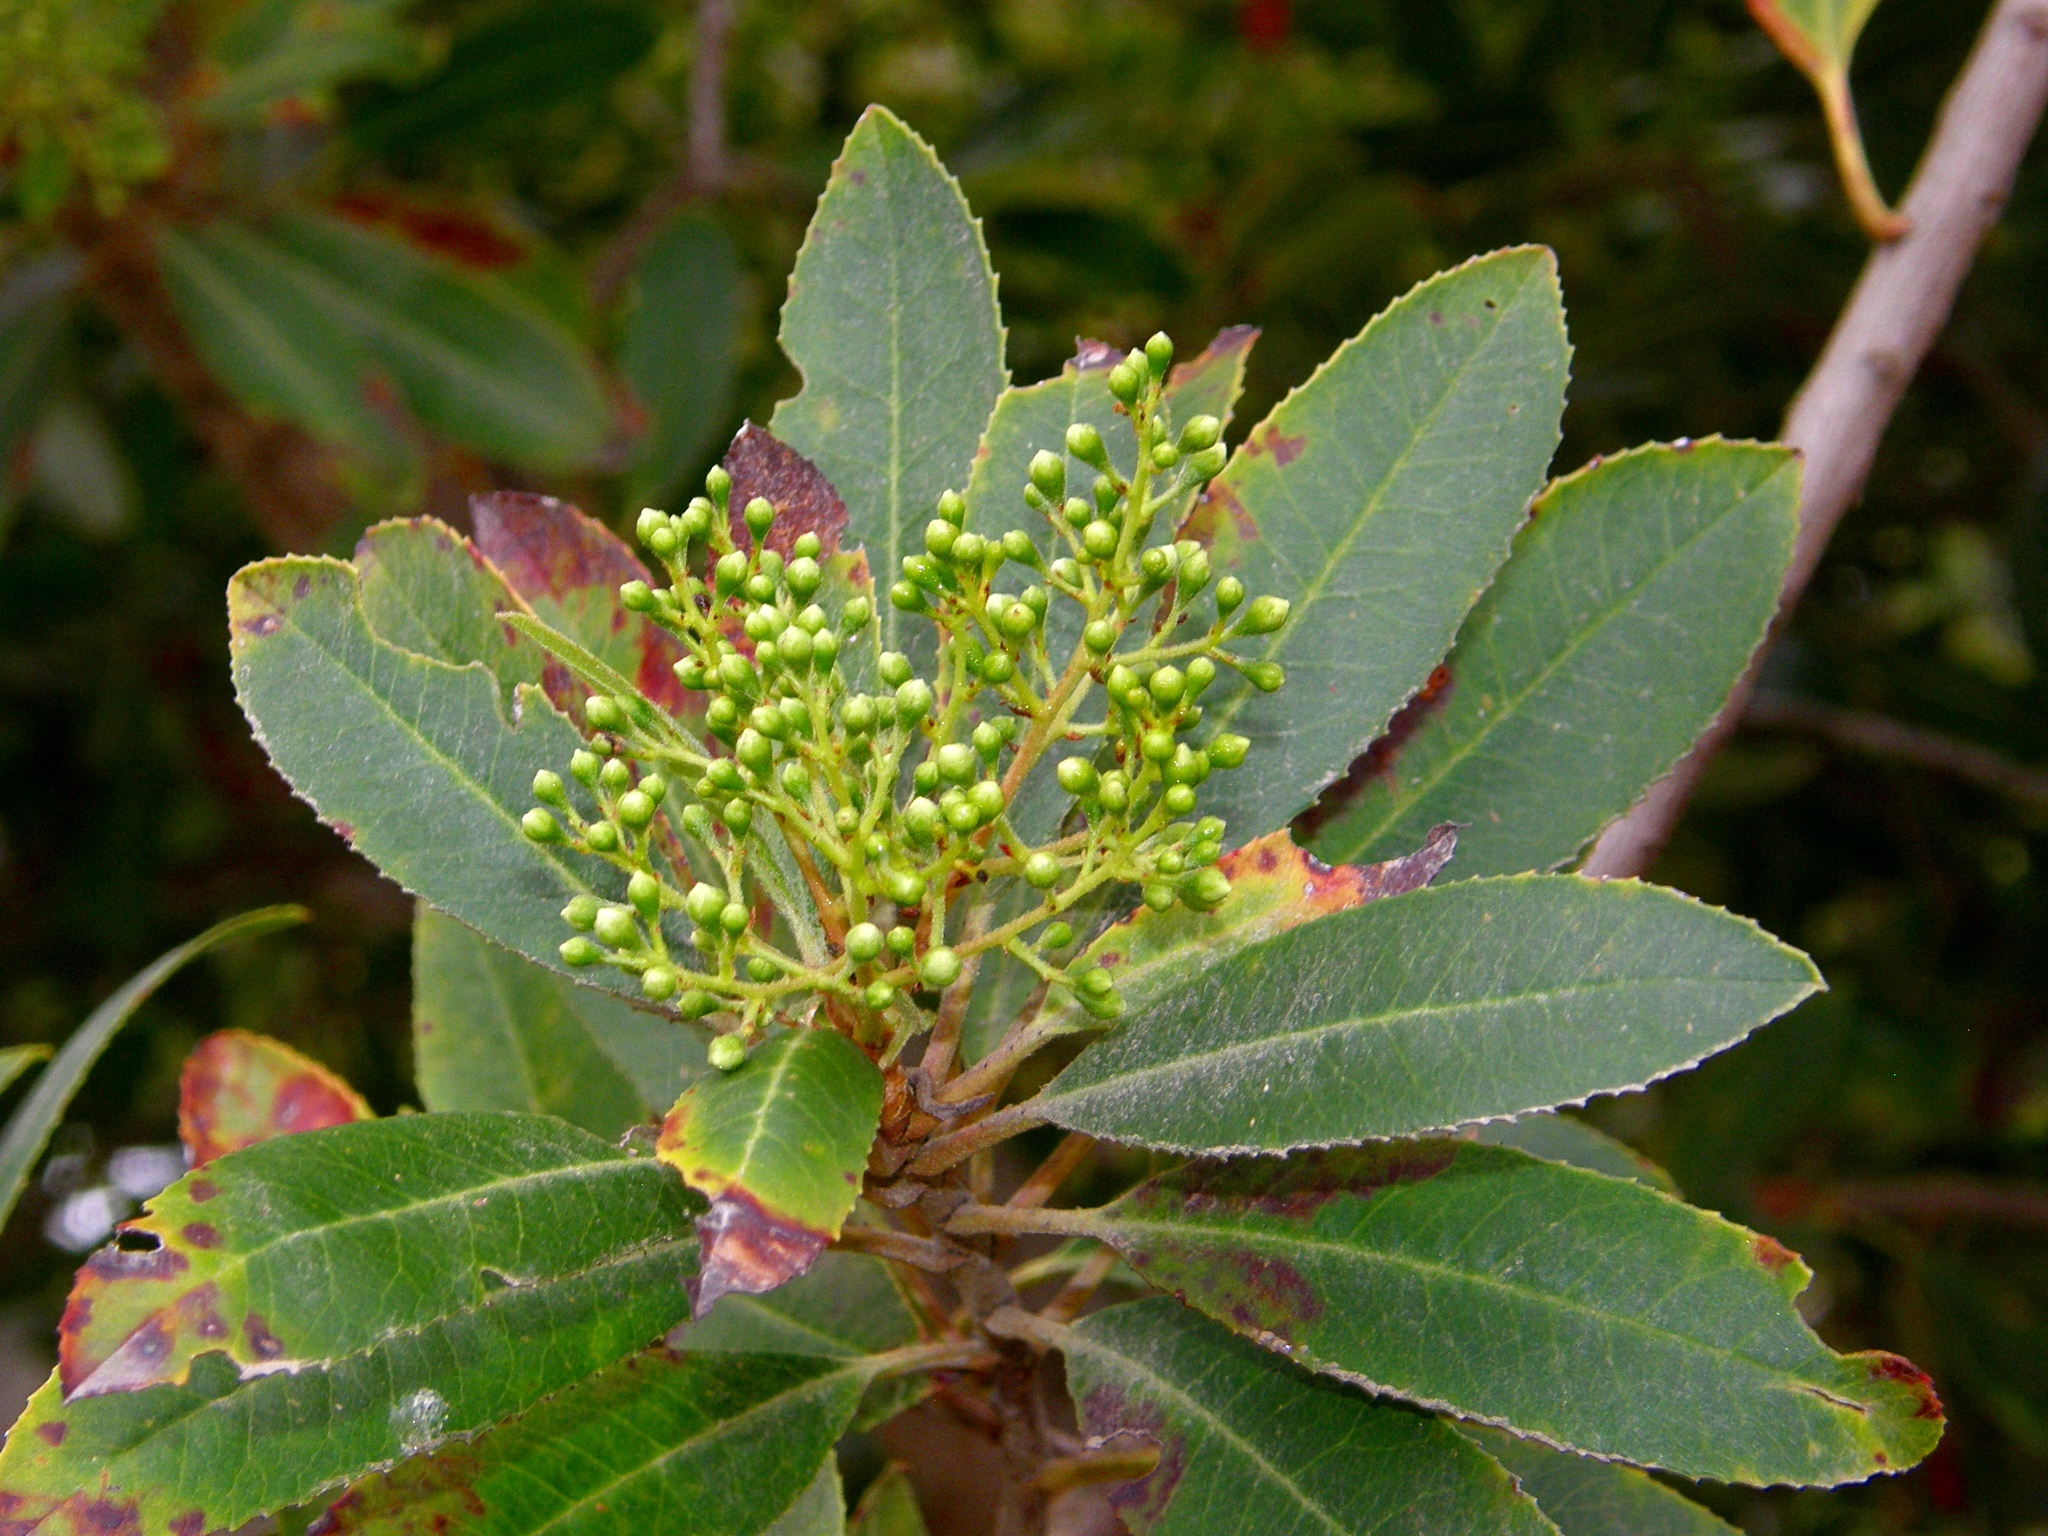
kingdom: Plantae
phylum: Tracheophyta
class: Magnoliopsida
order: Rosales
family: Rosaceae
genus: Heteromeles
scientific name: Heteromeles arbutifolia
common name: California-holly
